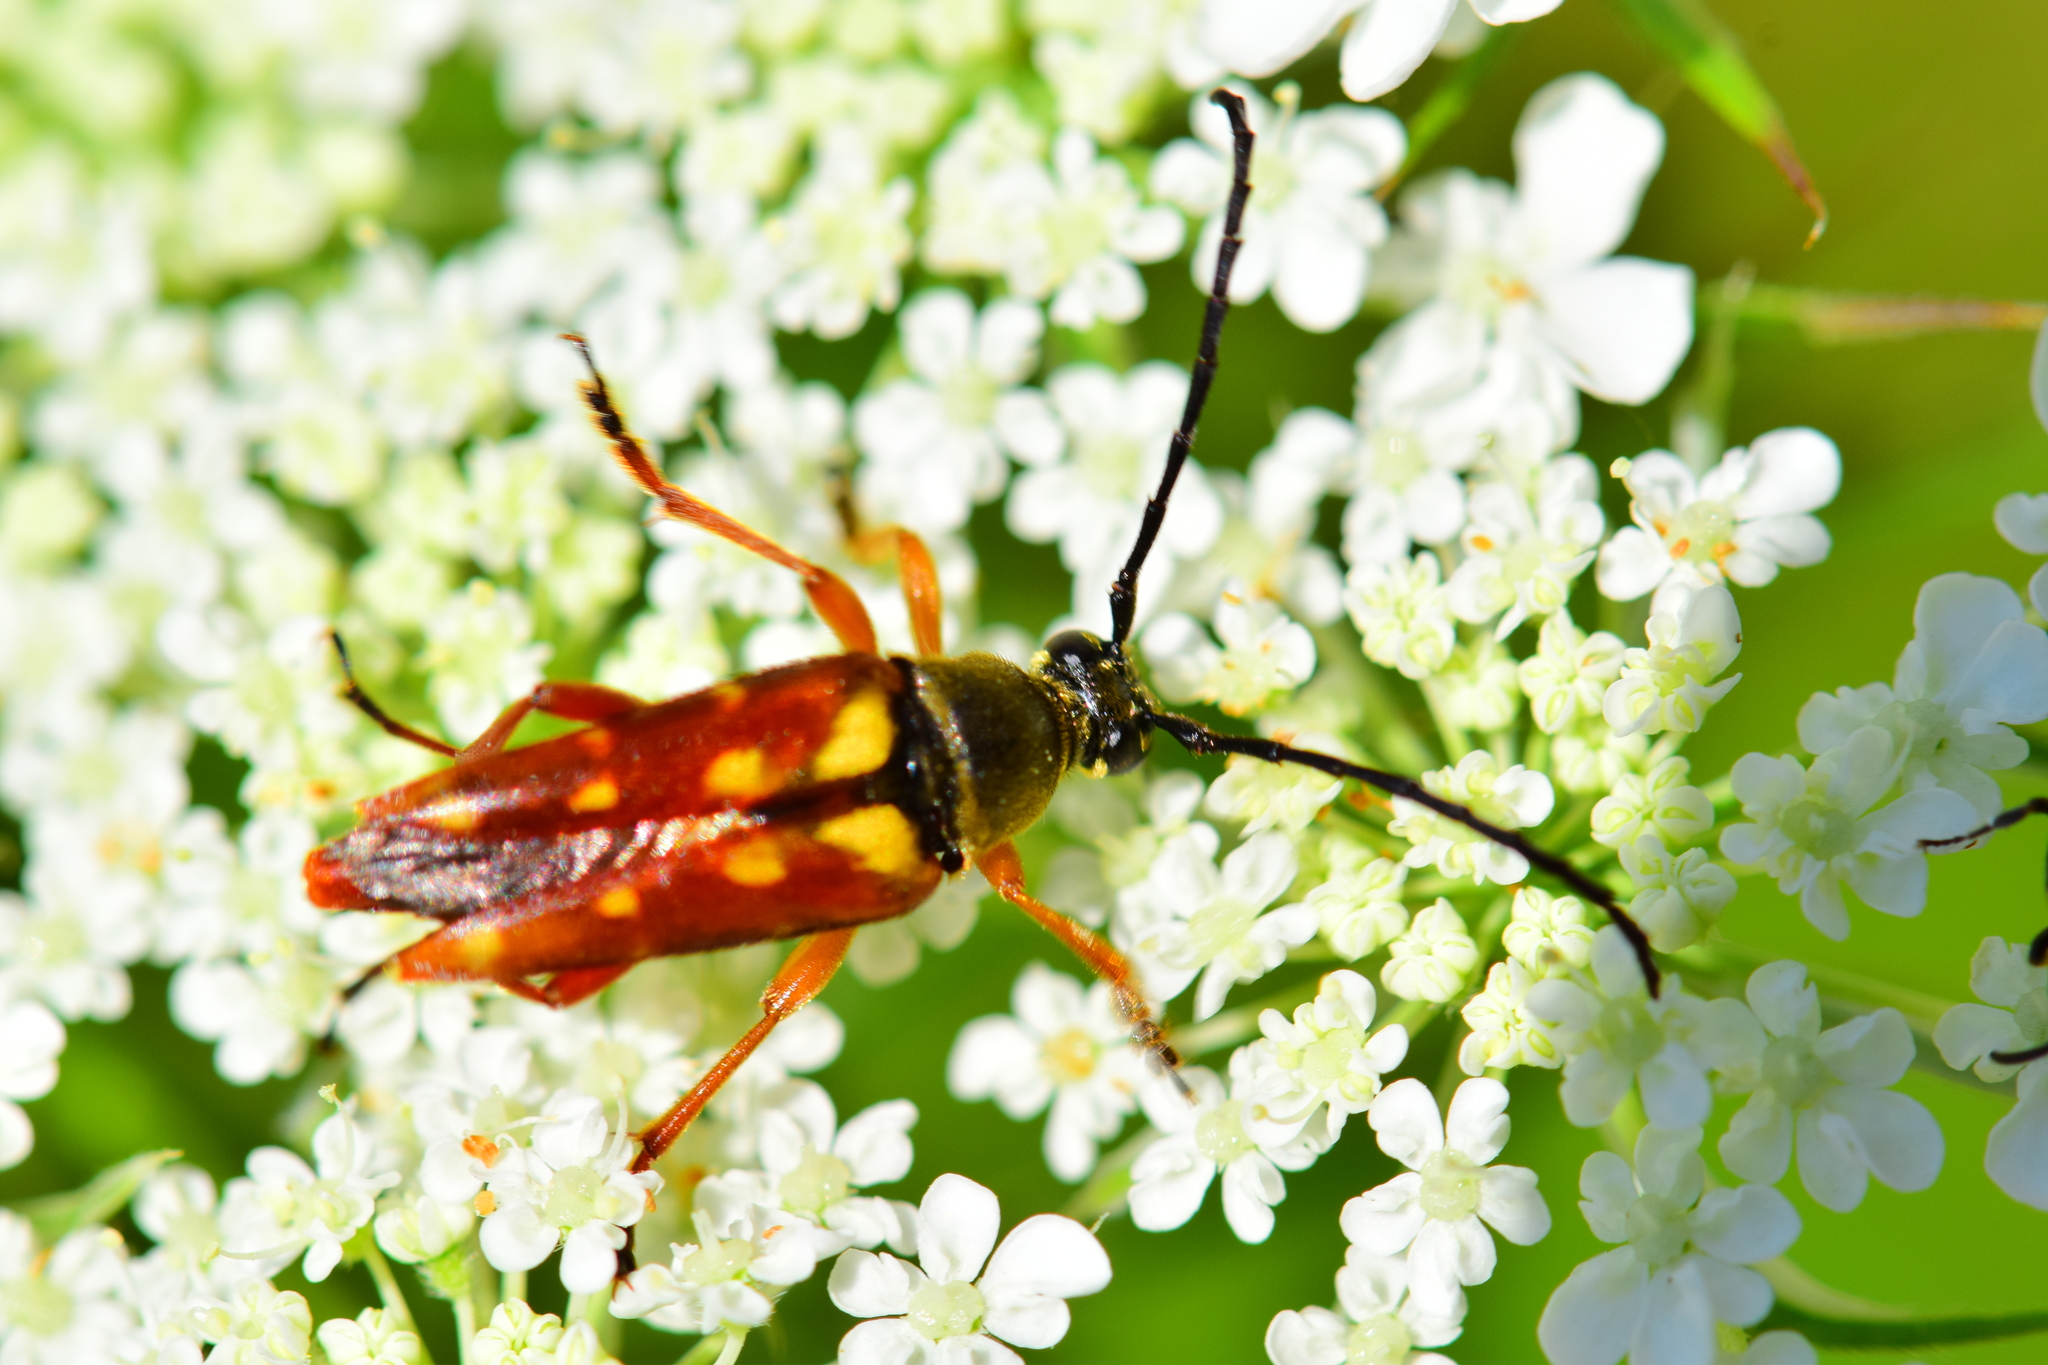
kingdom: Animalia
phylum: Arthropoda
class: Insecta
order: Coleoptera
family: Cerambycidae
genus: Typocerus
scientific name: Typocerus velutinus
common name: Banded longhorn beetle
